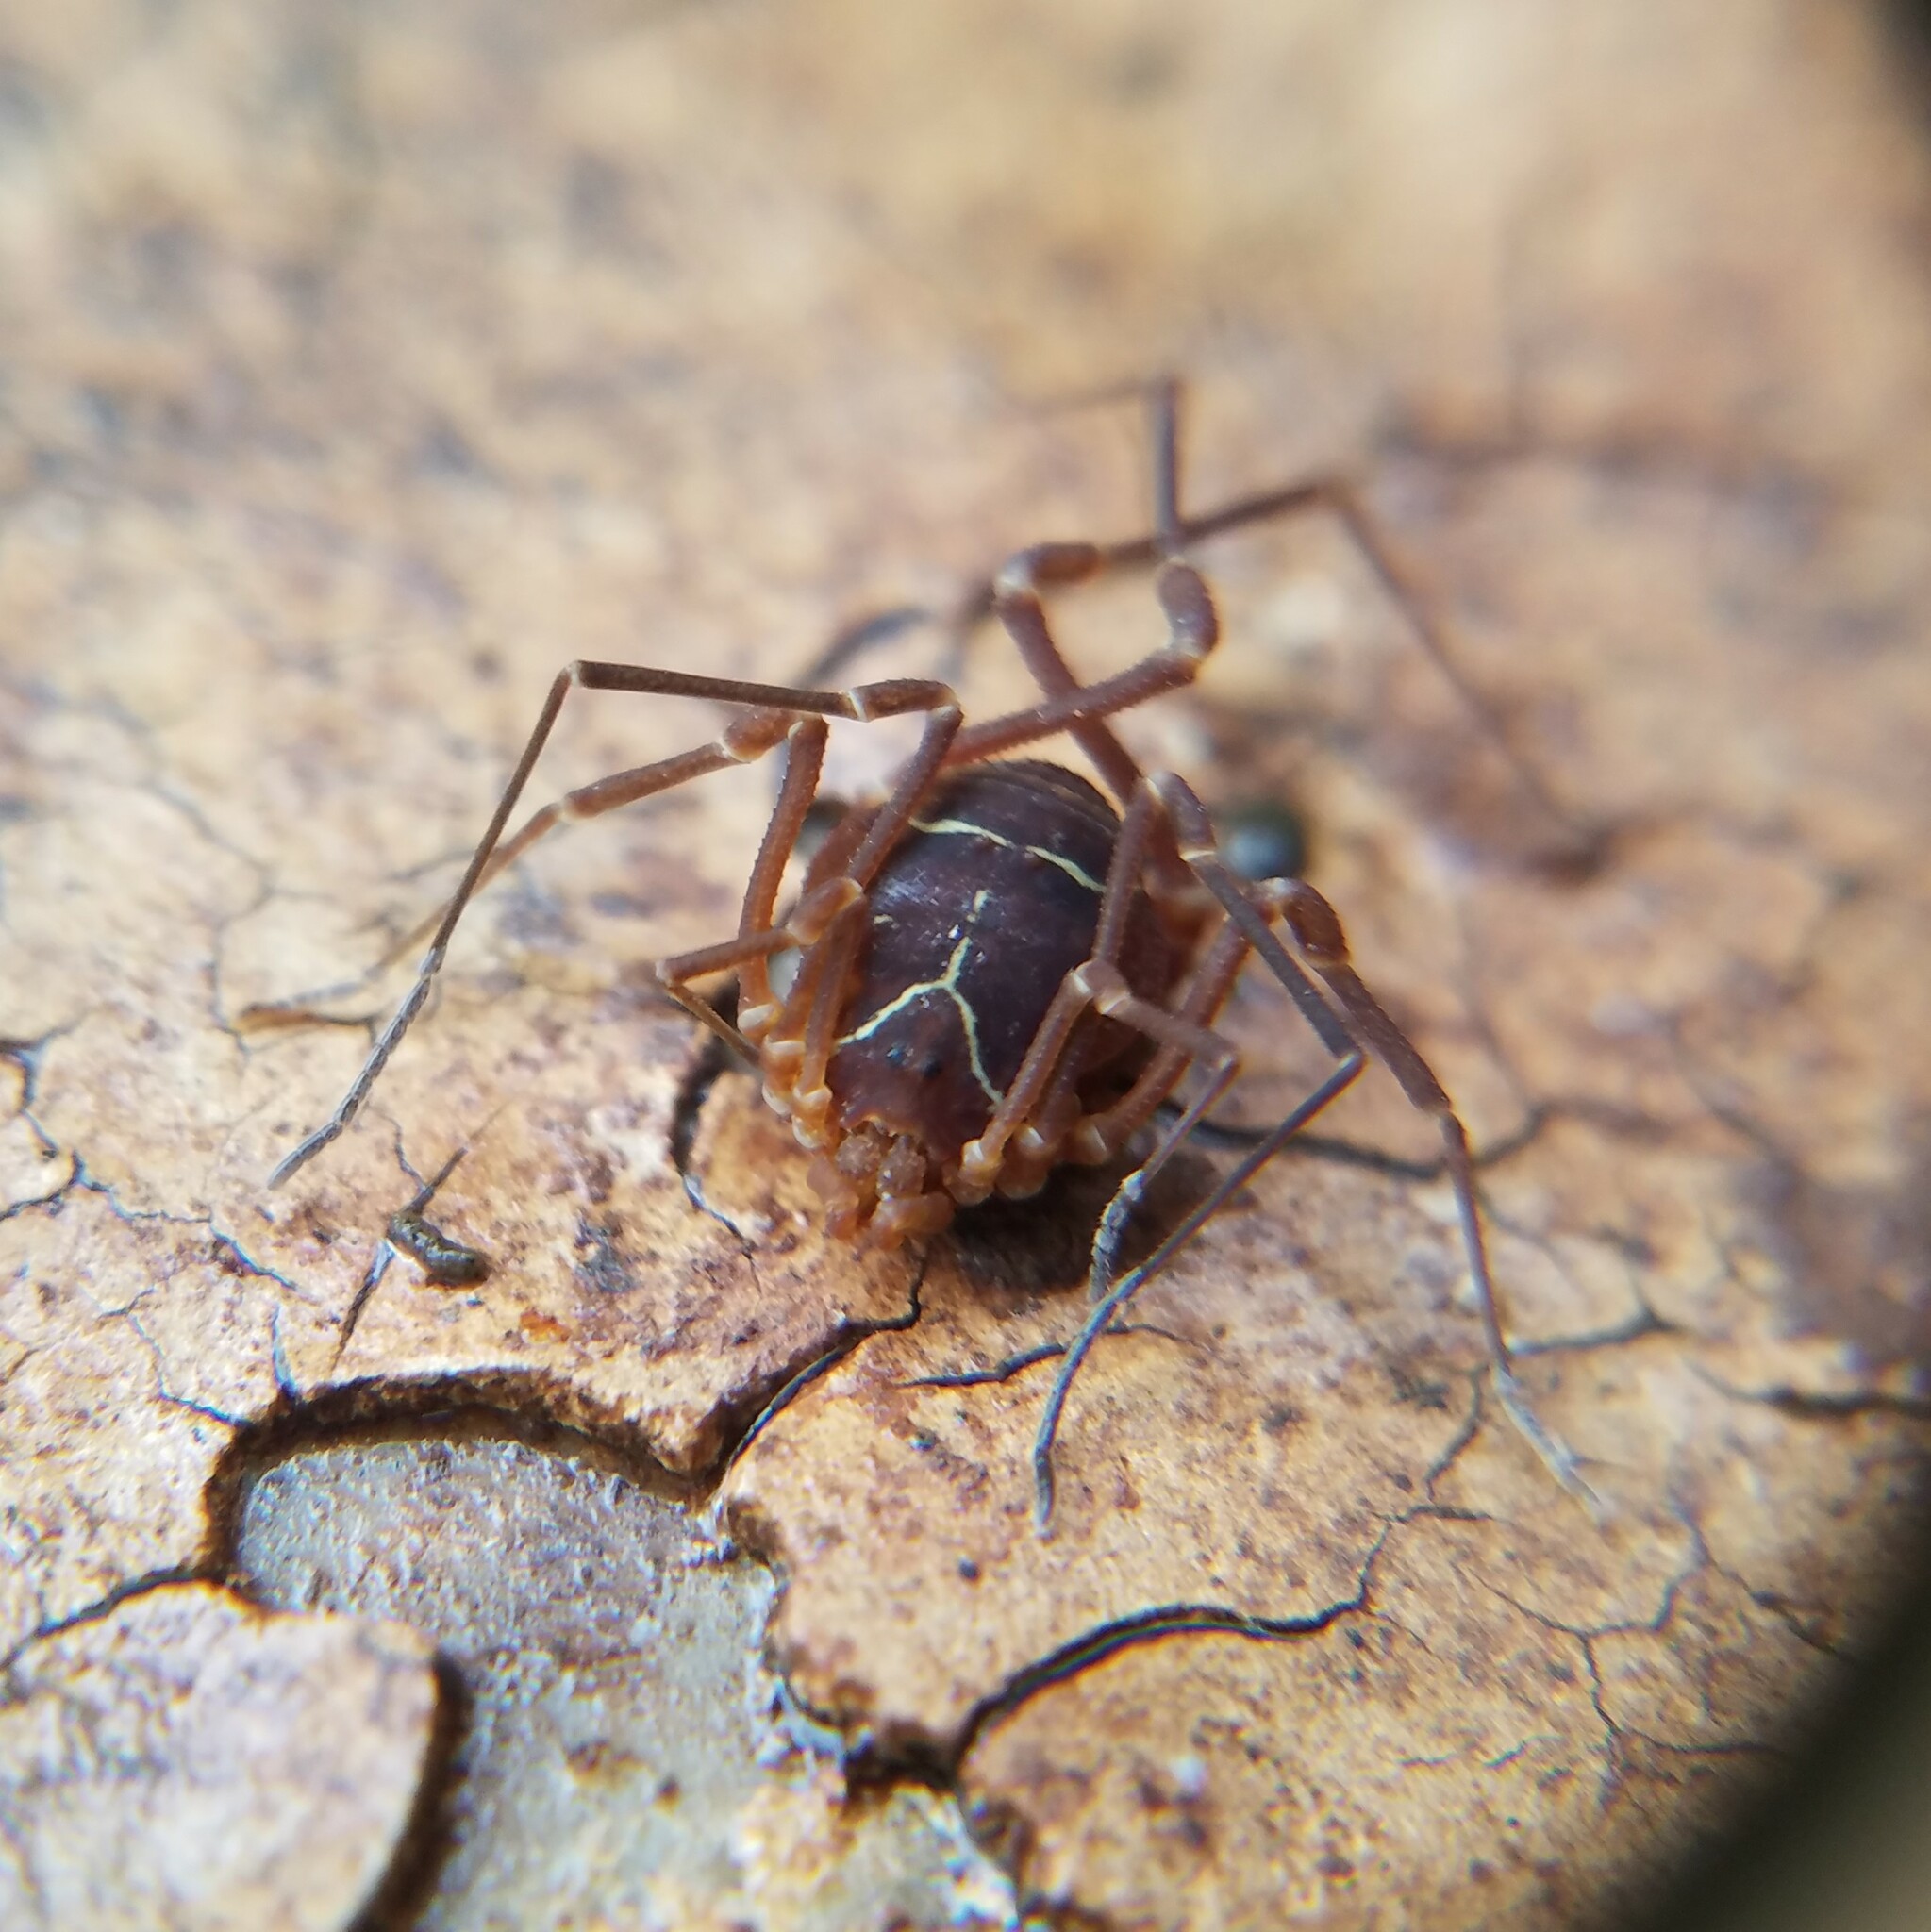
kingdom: Animalia
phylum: Arthropoda
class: Arachnida
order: Opiliones
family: Cosmetidae
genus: Libitioides
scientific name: Libitioides sayi
